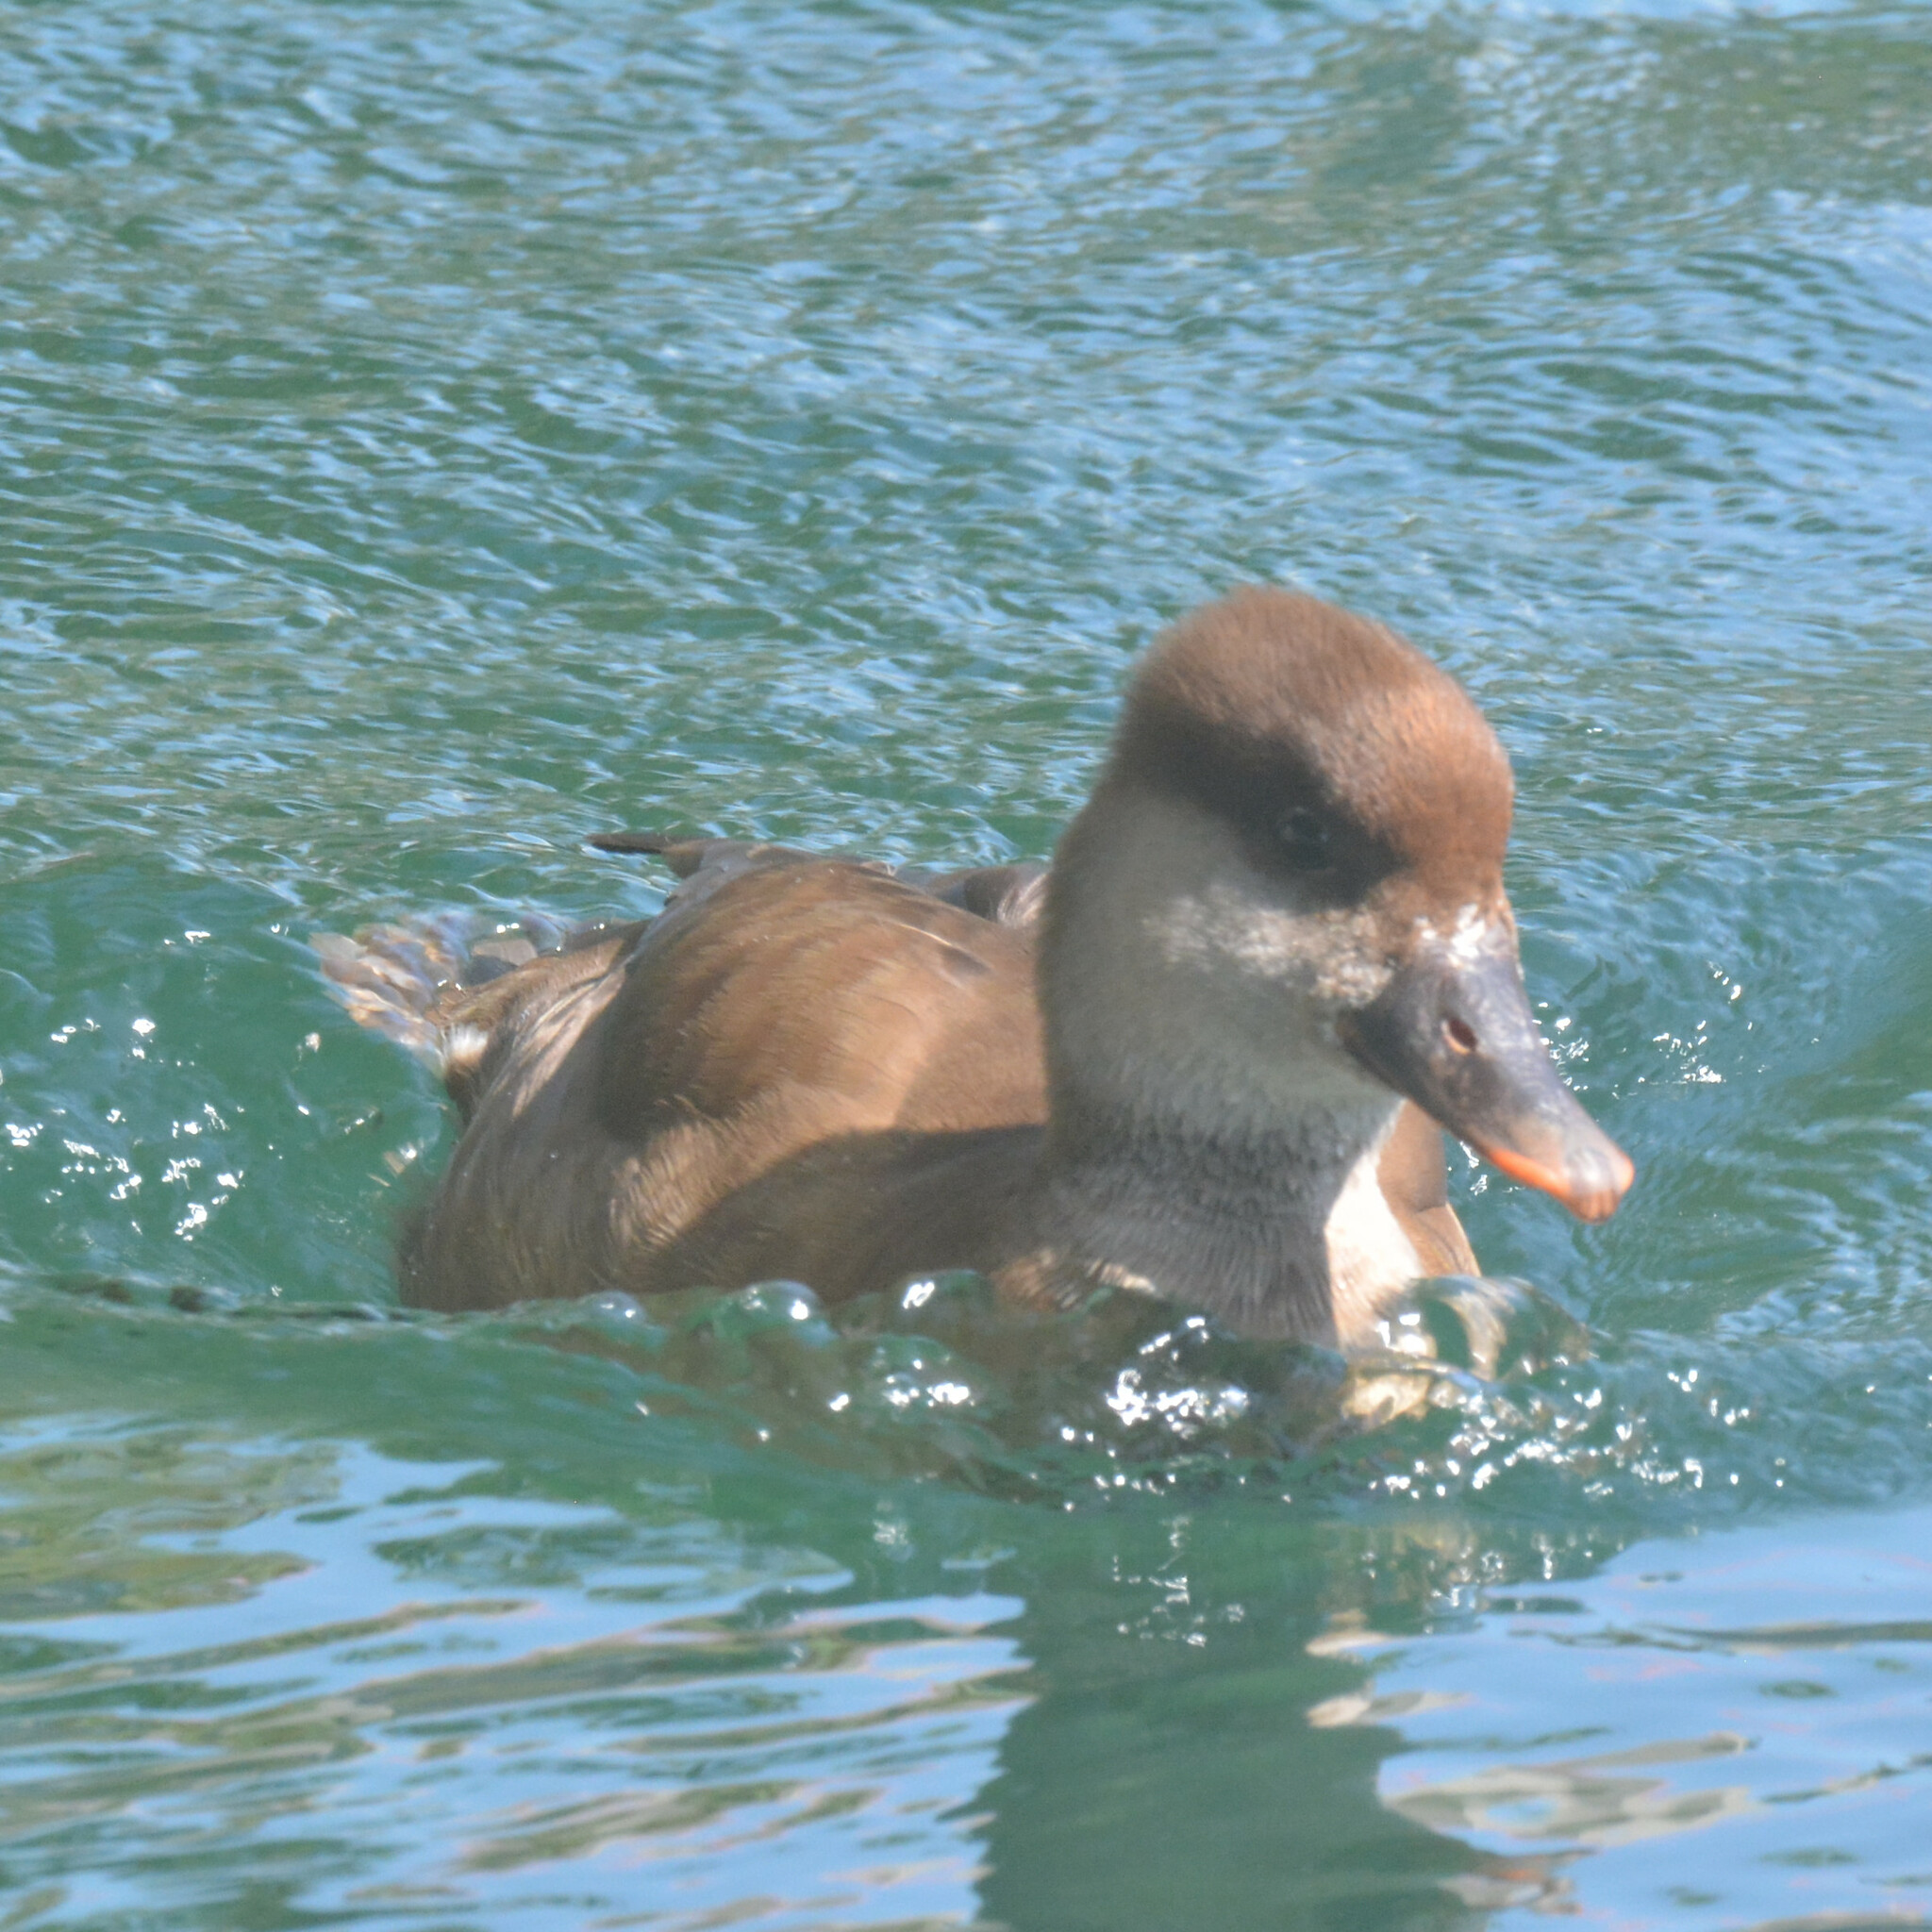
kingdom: Animalia
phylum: Chordata
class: Aves
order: Anseriformes
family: Anatidae
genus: Netta
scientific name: Netta rufina
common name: Red-crested pochard
